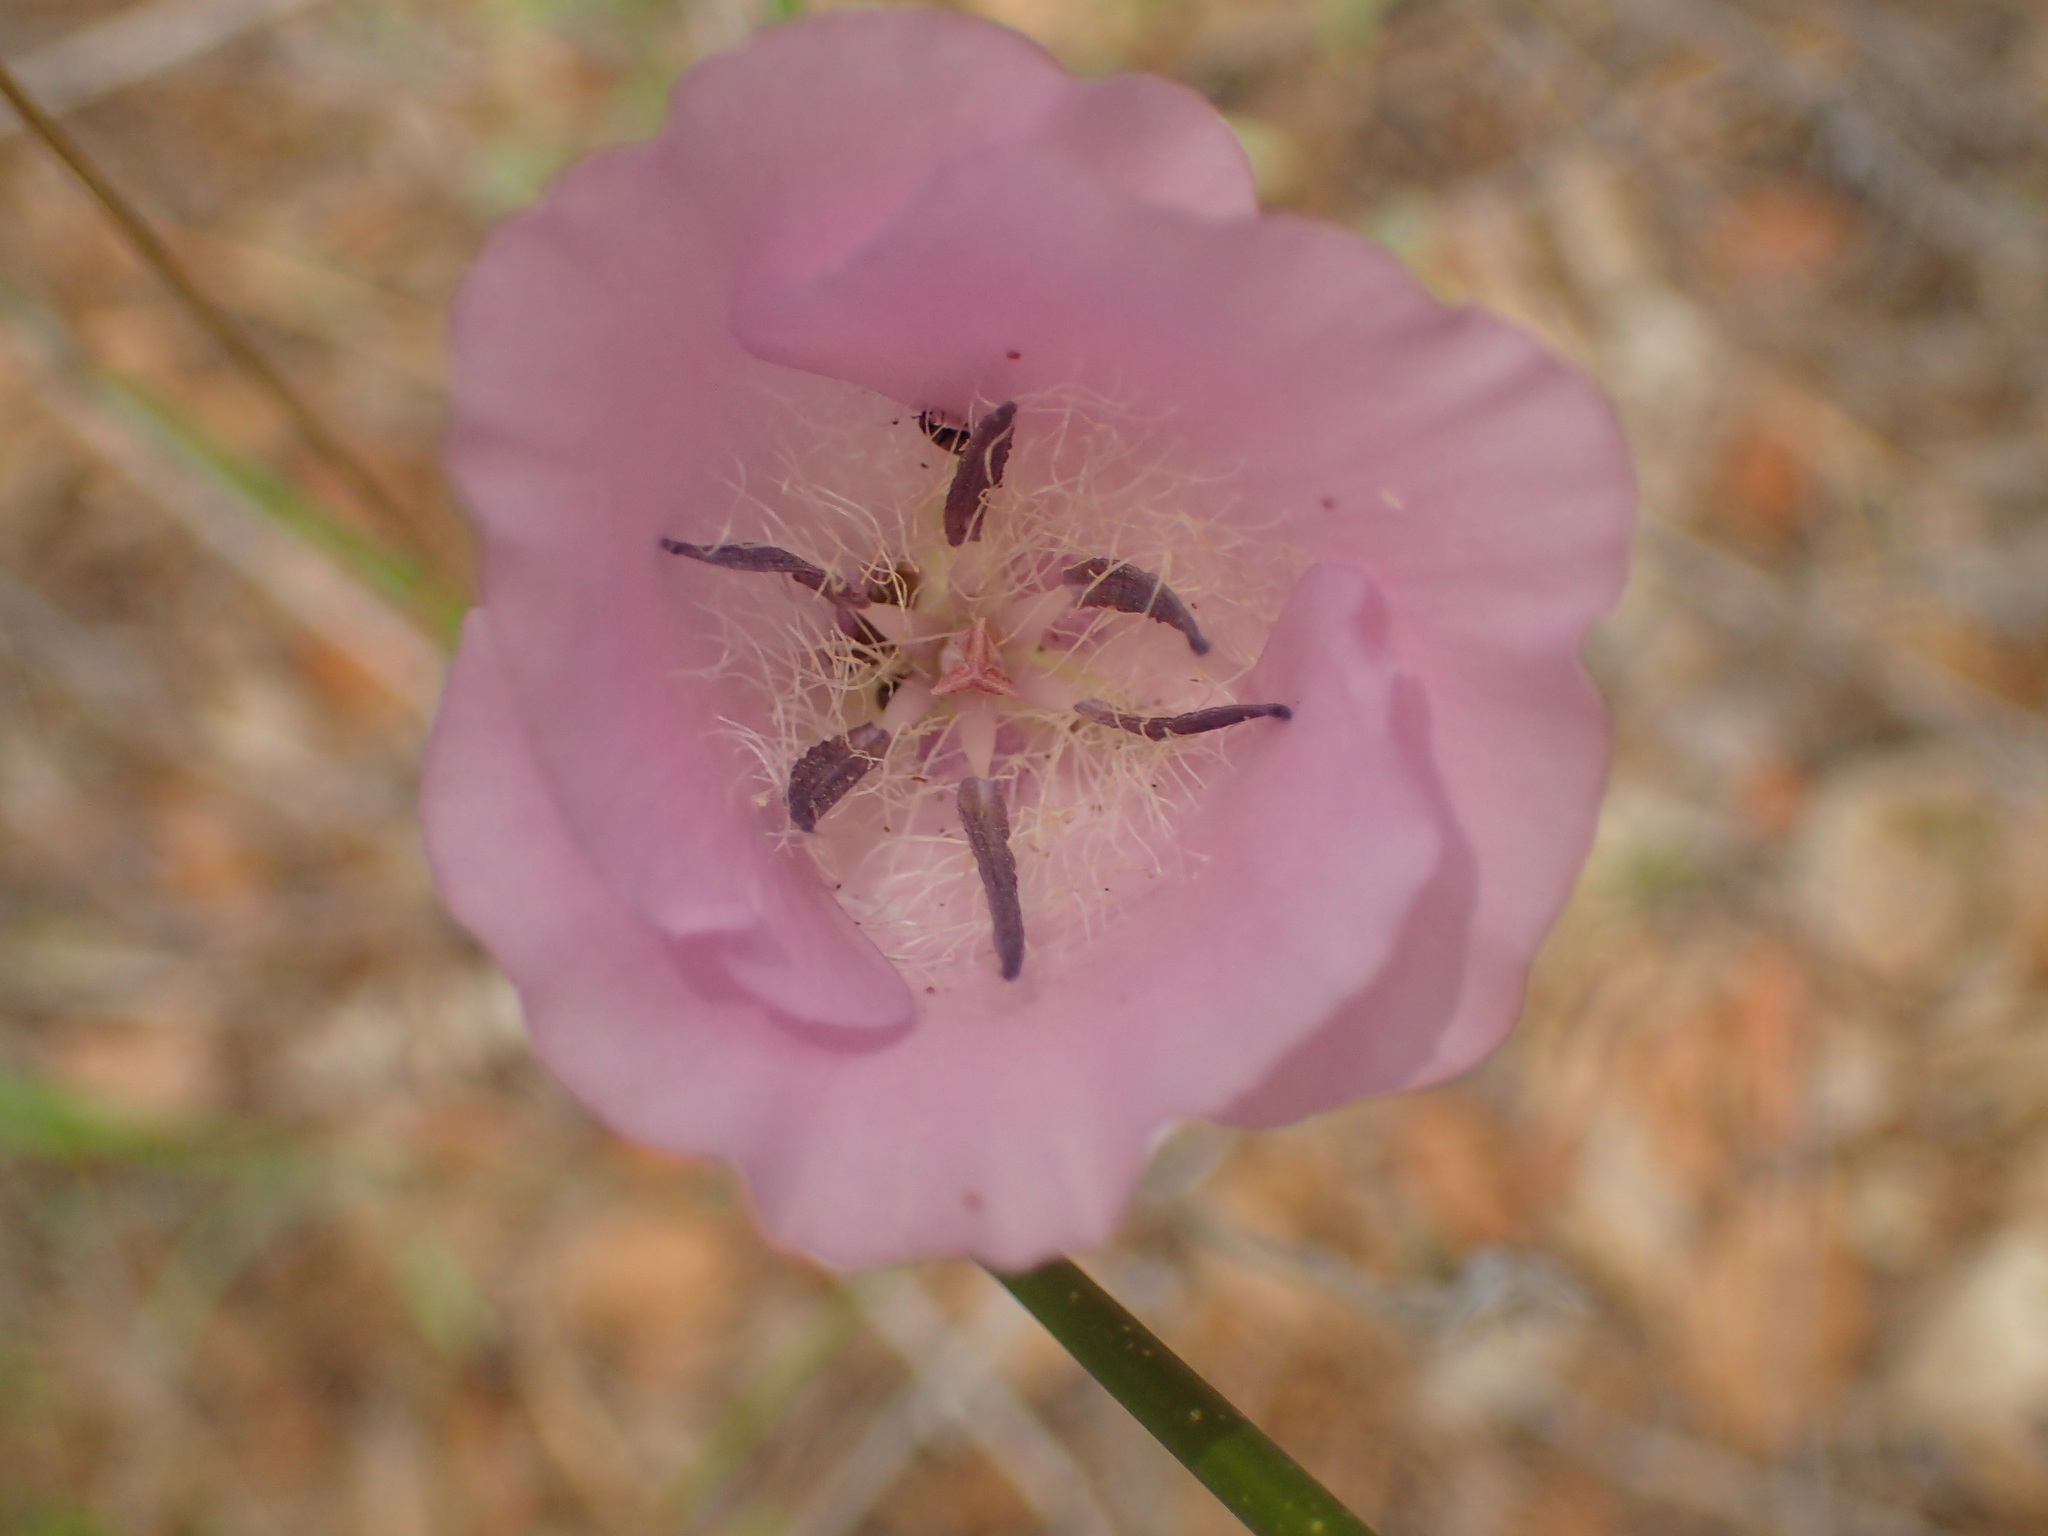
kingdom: Plantae
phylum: Tracheophyta
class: Liliopsida
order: Liliales
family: Liliaceae
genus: Calochortus
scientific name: Calochortus splendens
